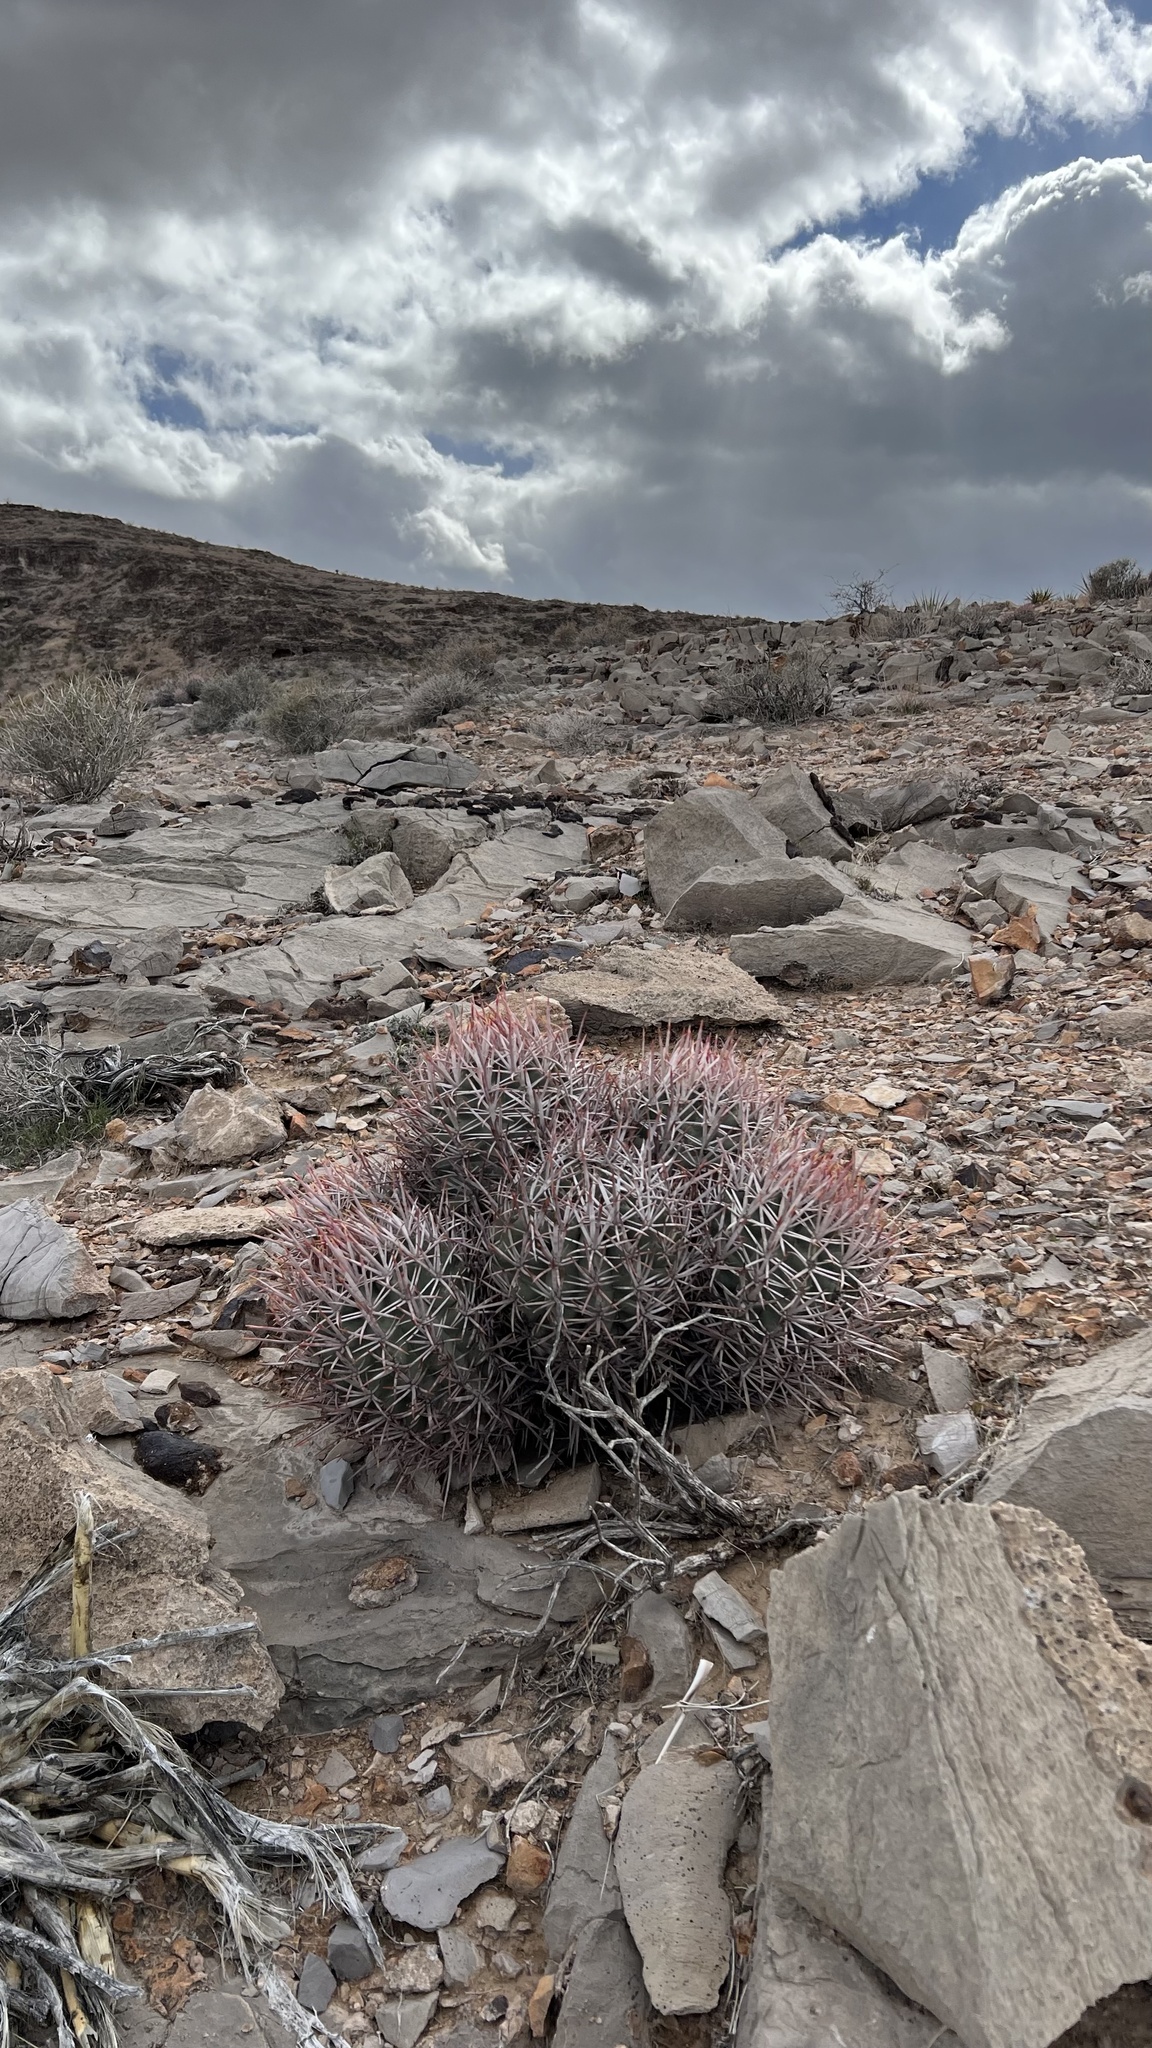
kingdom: Plantae
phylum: Tracheophyta
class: Magnoliopsida
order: Caryophyllales
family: Cactaceae
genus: Echinocactus
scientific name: Echinocactus polycephalus
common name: Cottontop cactus
